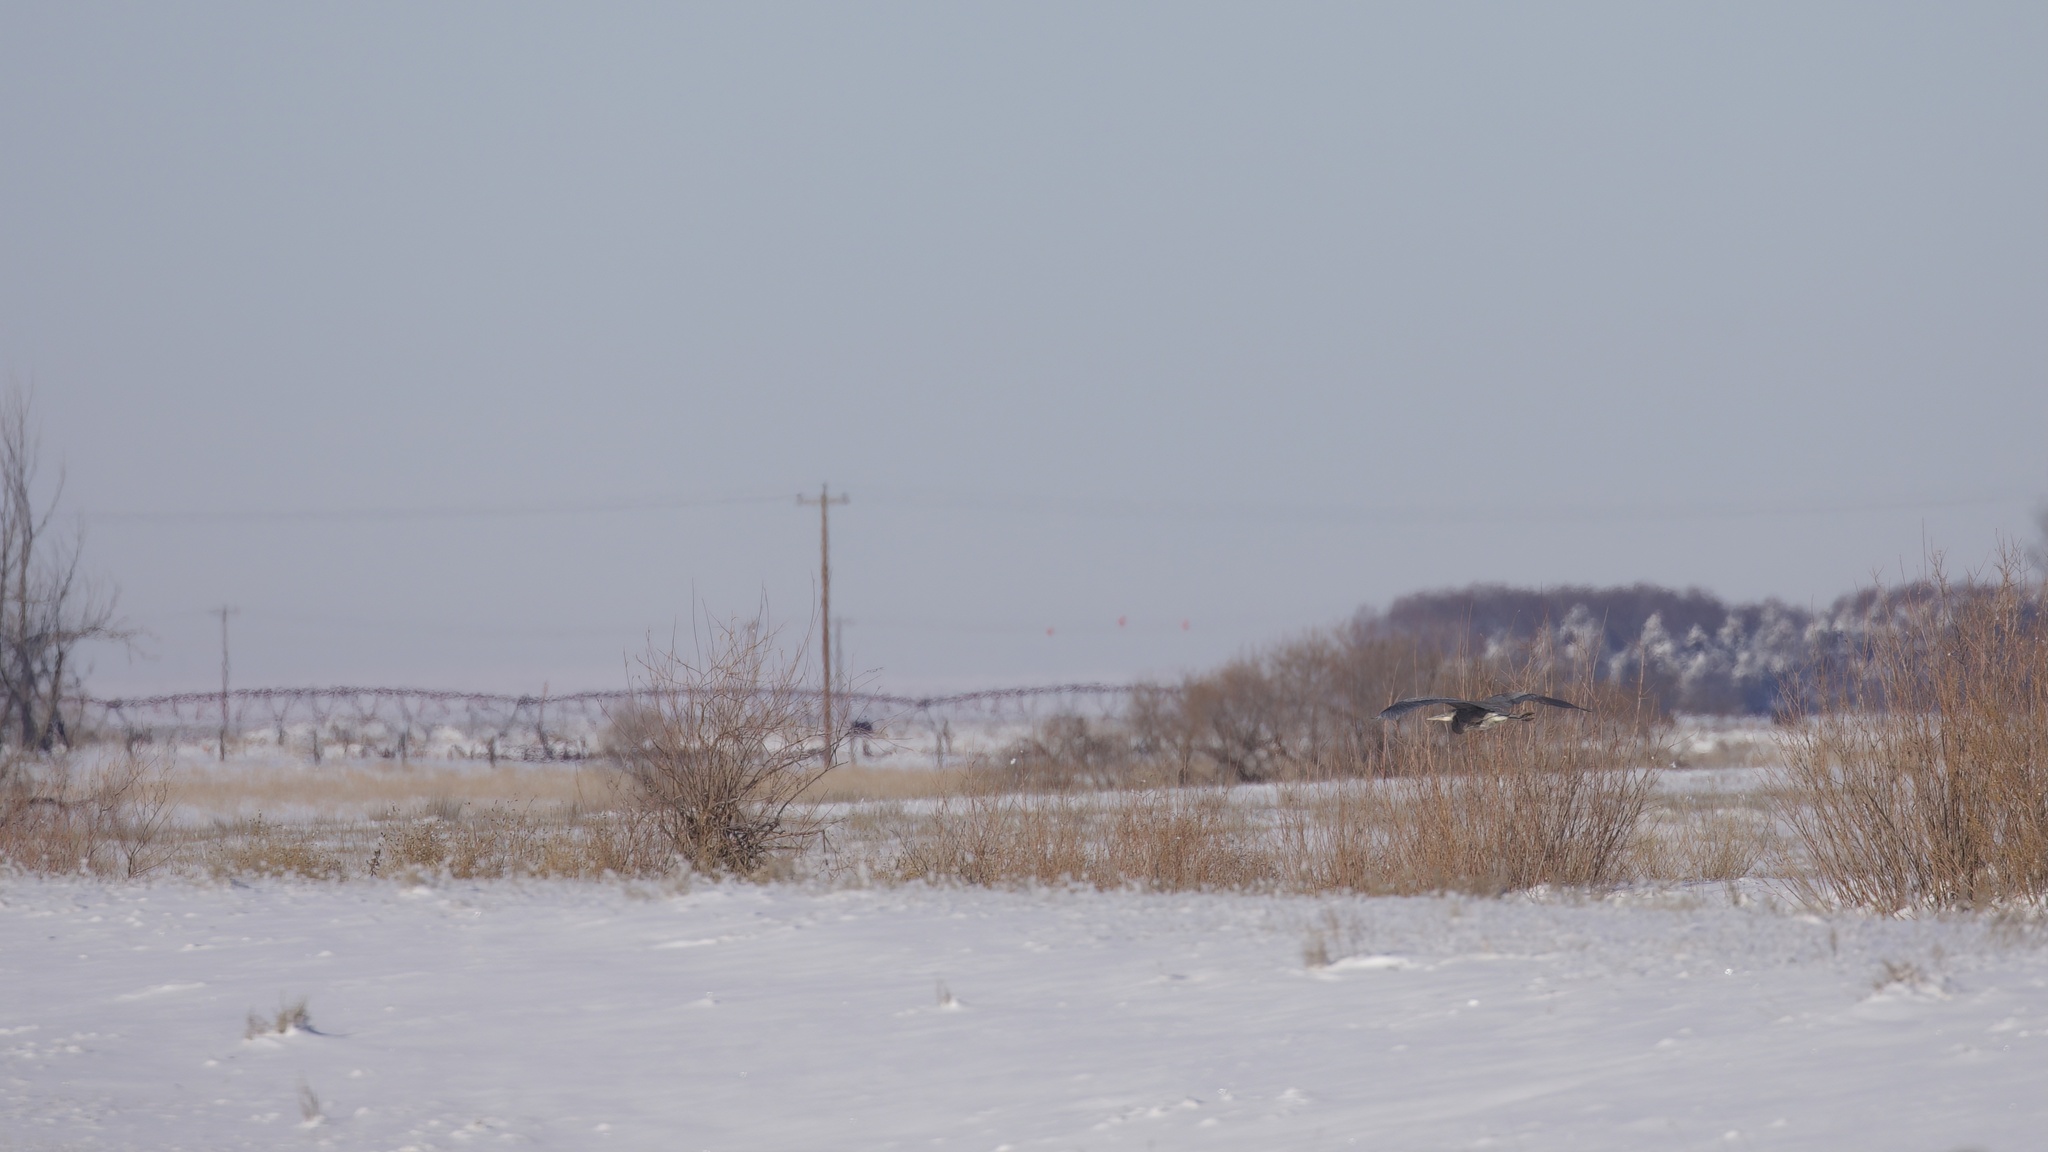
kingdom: Animalia
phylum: Chordata
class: Aves
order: Pelecaniformes
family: Ardeidae
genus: Ardea
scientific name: Ardea herodias
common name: Great blue heron
